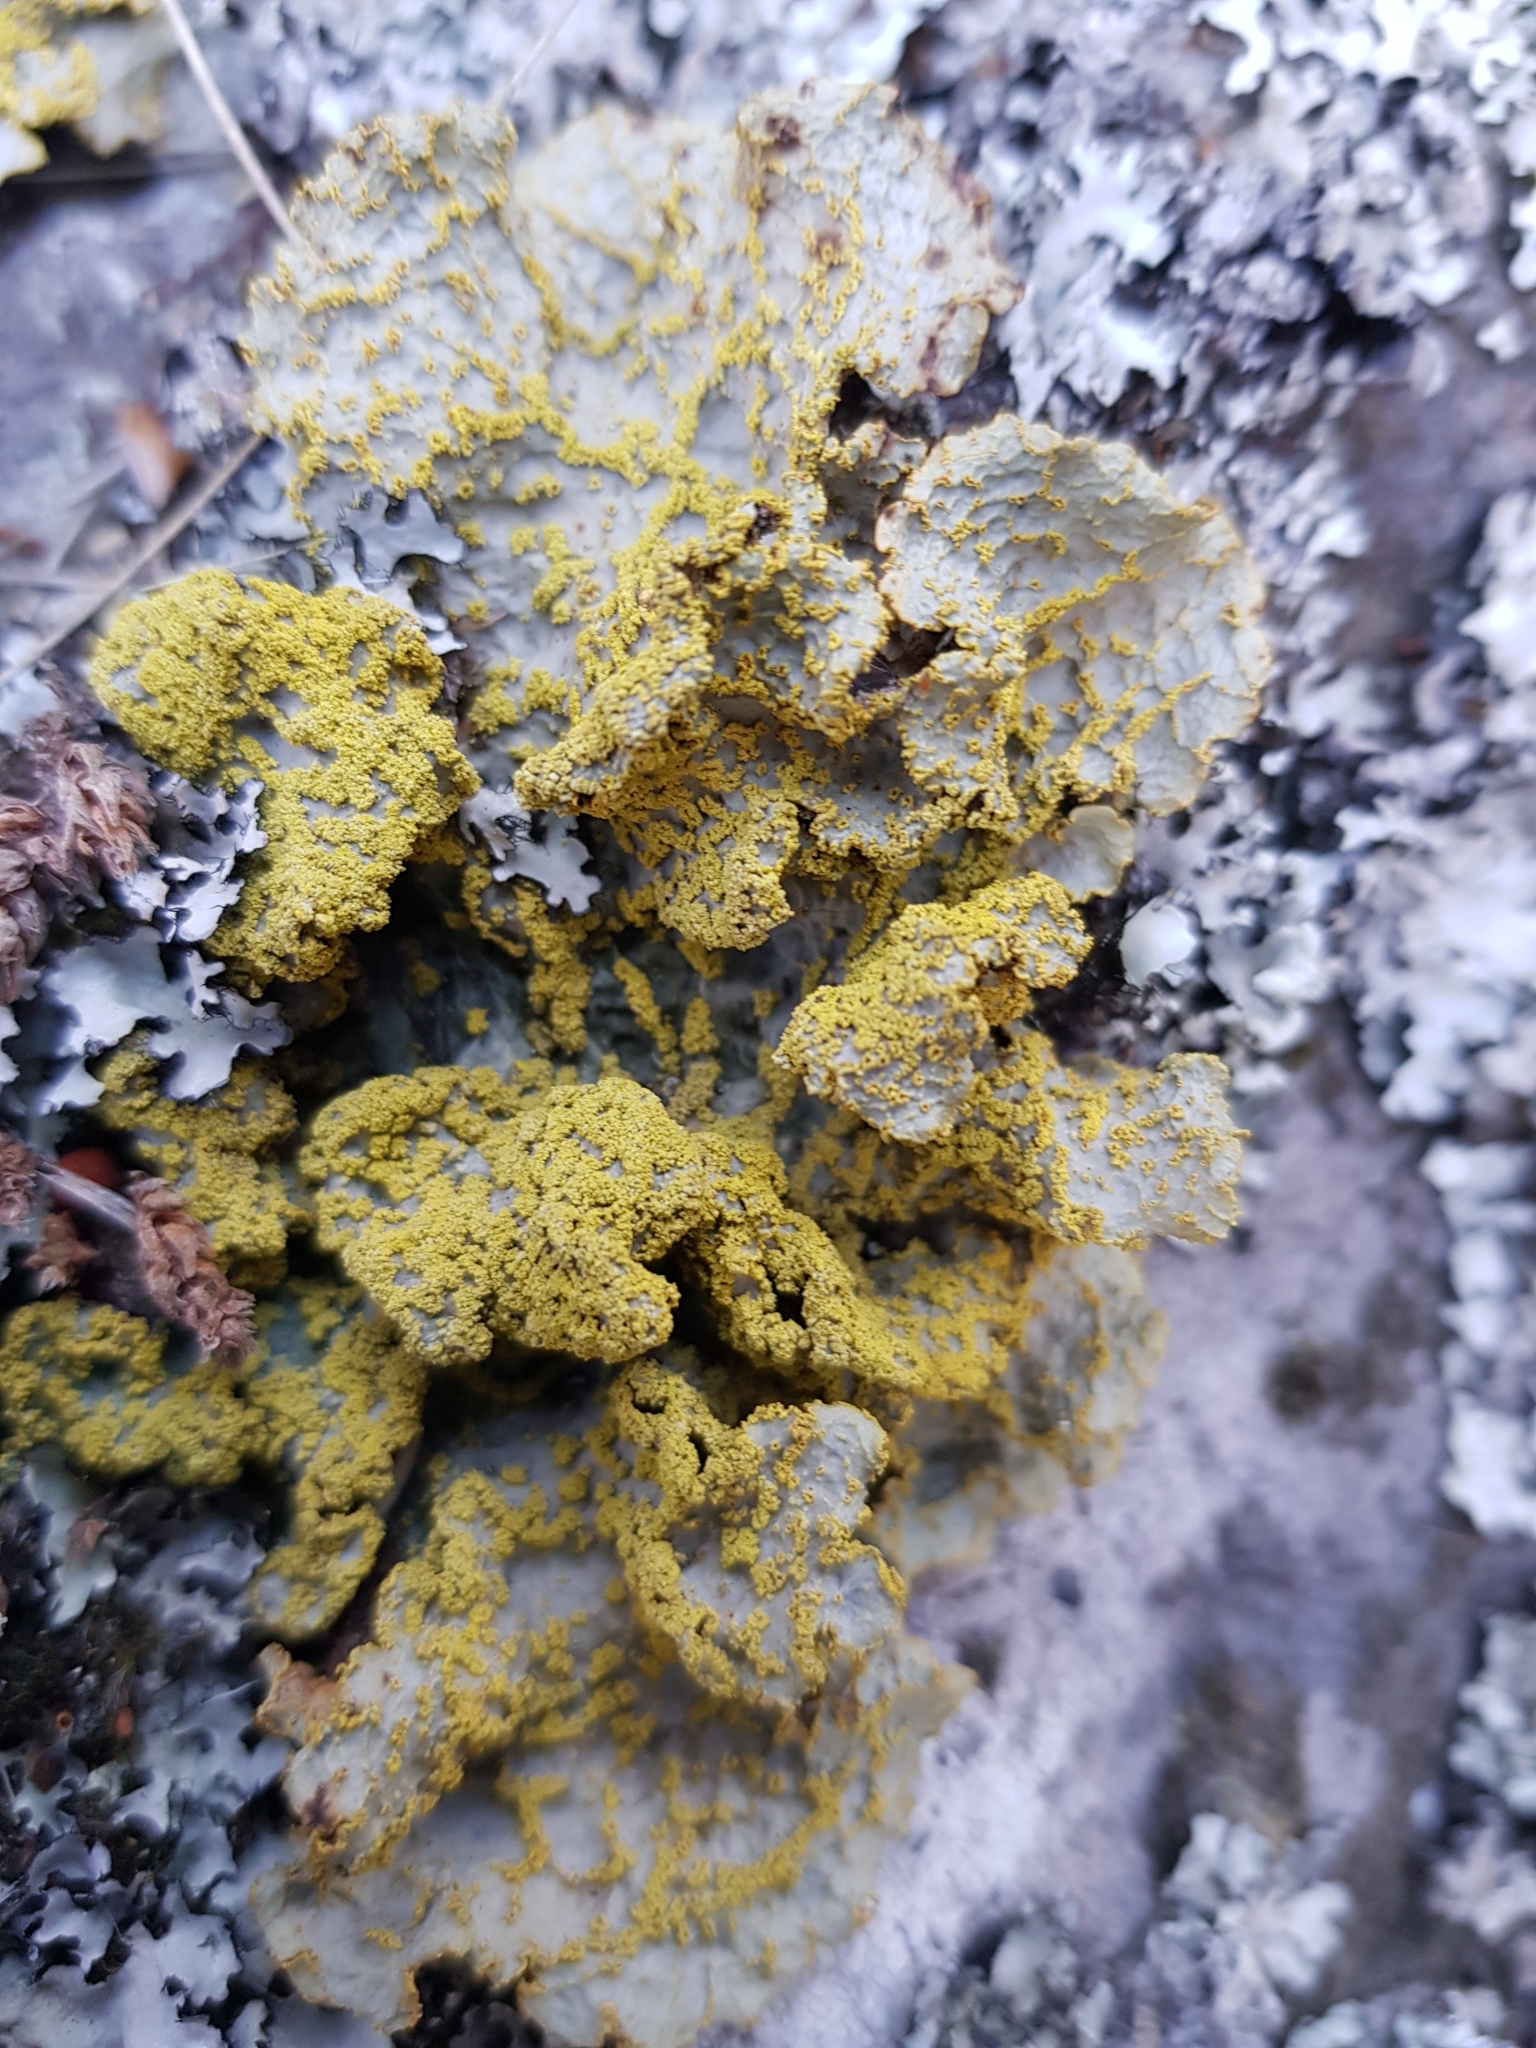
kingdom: Fungi
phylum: Ascomycota
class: Lecanoromycetes
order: Peltigerales
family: Lobariaceae
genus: Yarrumia
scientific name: Yarrumia colensoi
